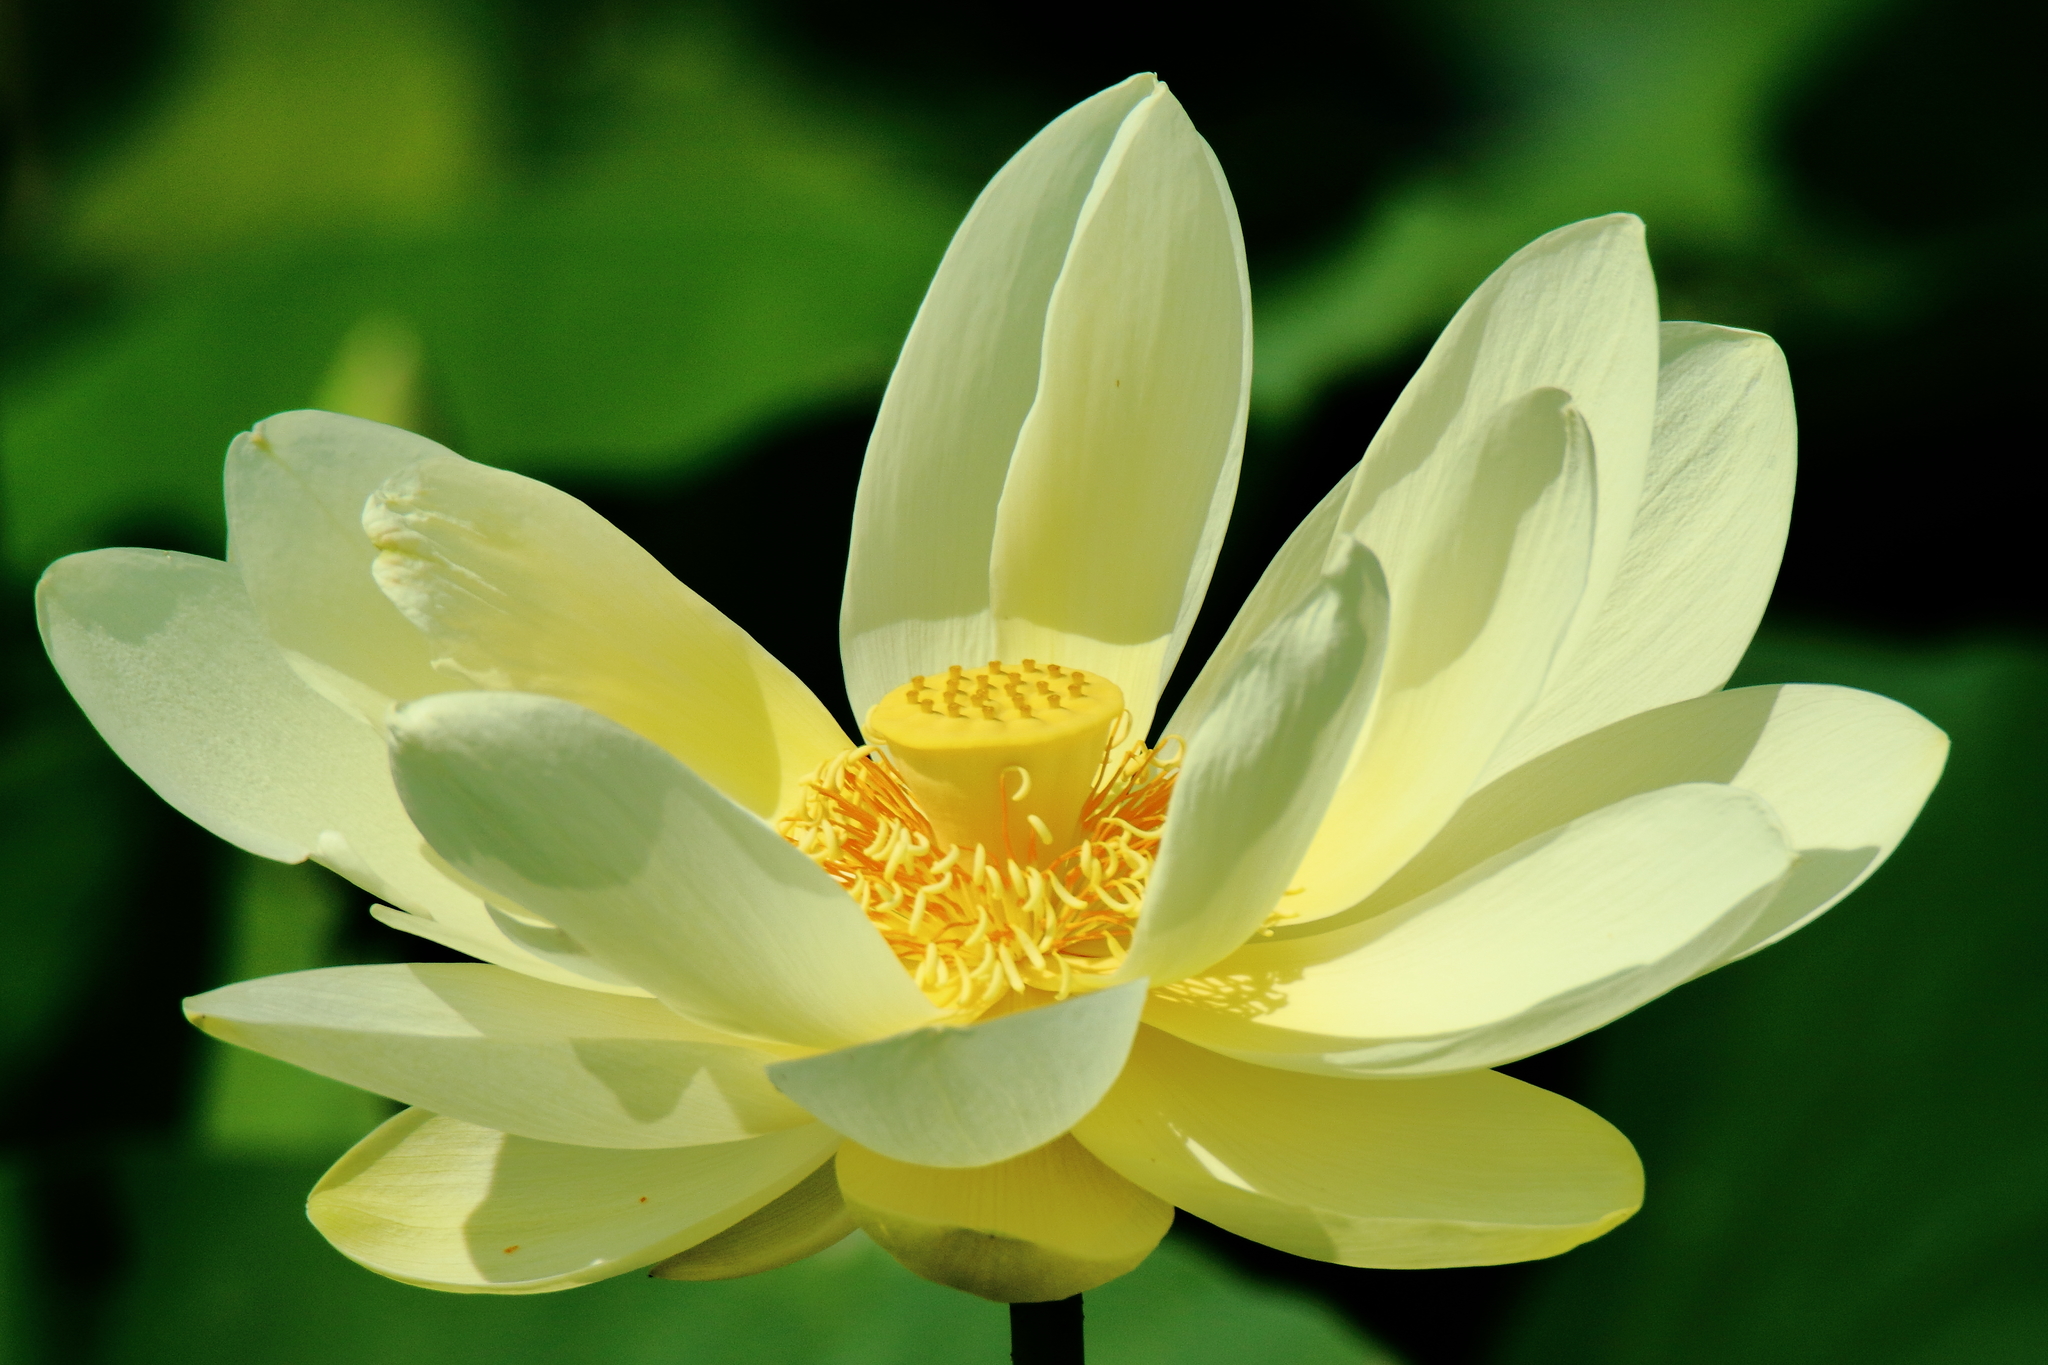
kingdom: Plantae
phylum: Tracheophyta
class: Magnoliopsida
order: Proteales
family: Nelumbonaceae
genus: Nelumbo
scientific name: Nelumbo lutea
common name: American lotus
